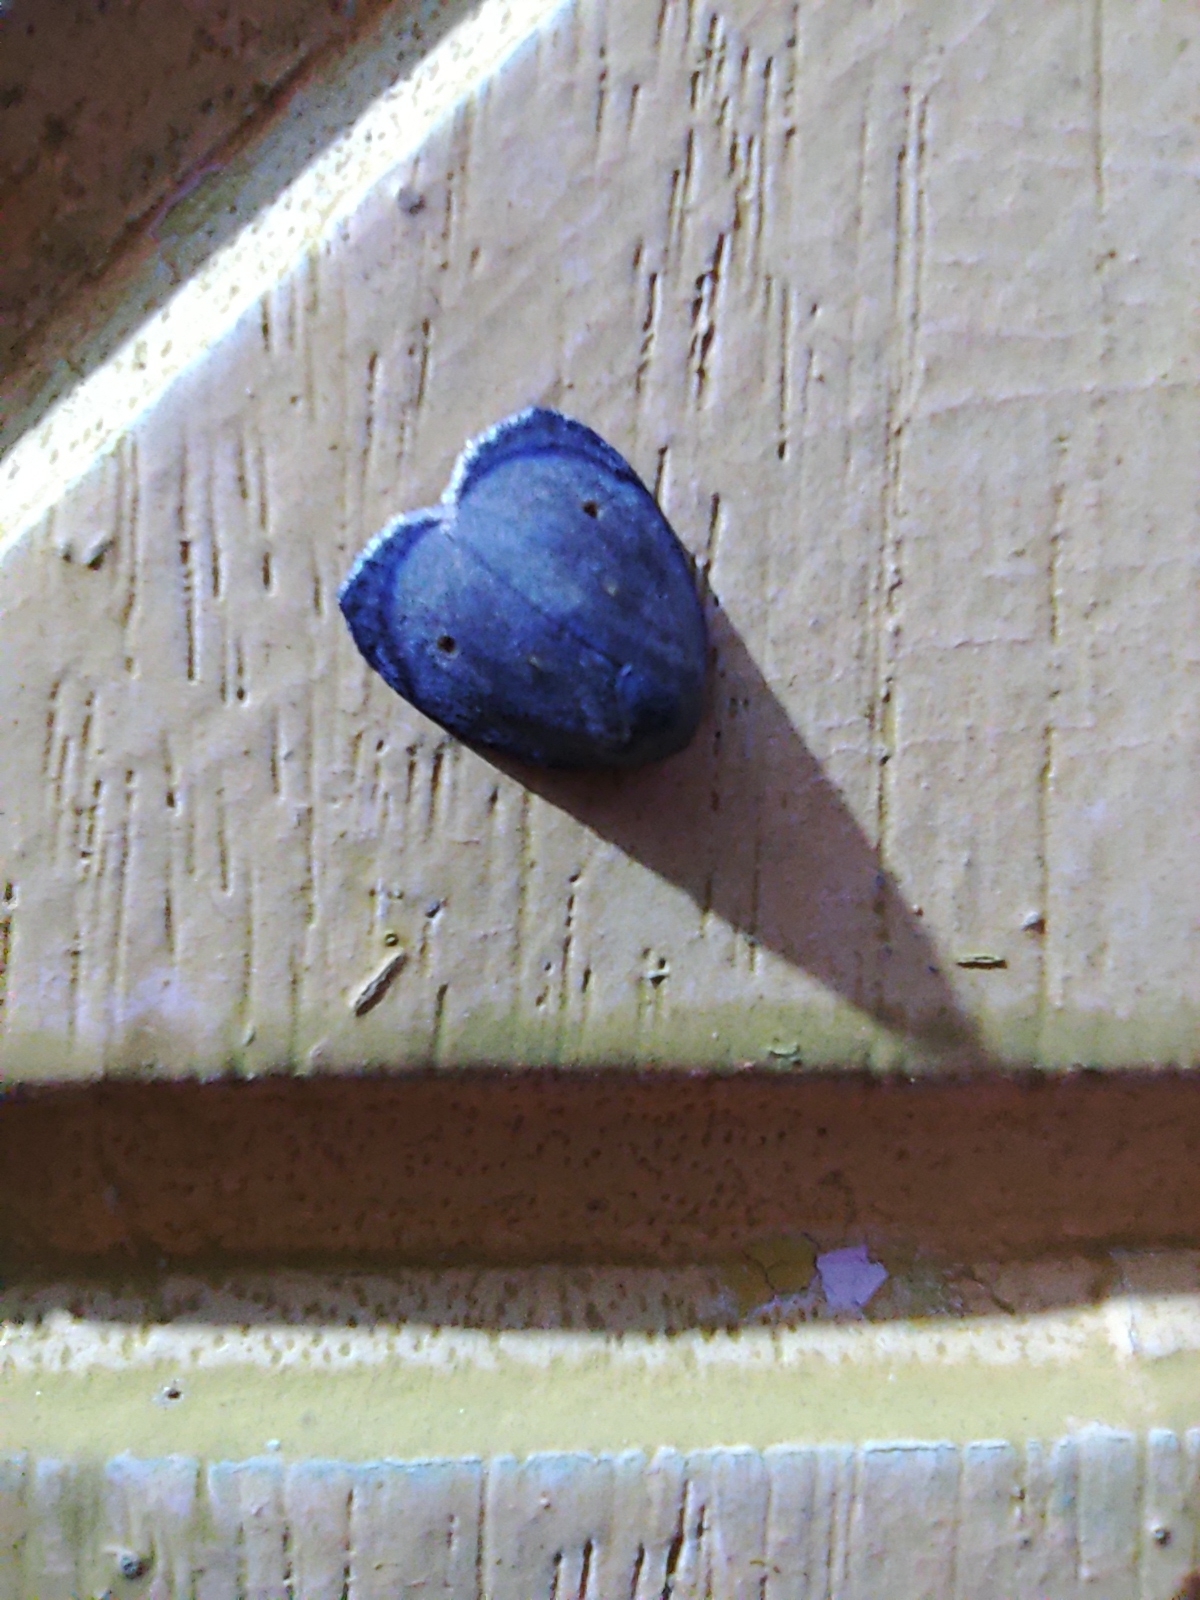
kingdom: Animalia
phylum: Arthropoda
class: Insecta
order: Lepidoptera
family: Erebidae
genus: Hemonia
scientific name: Hemonia orbiferana
